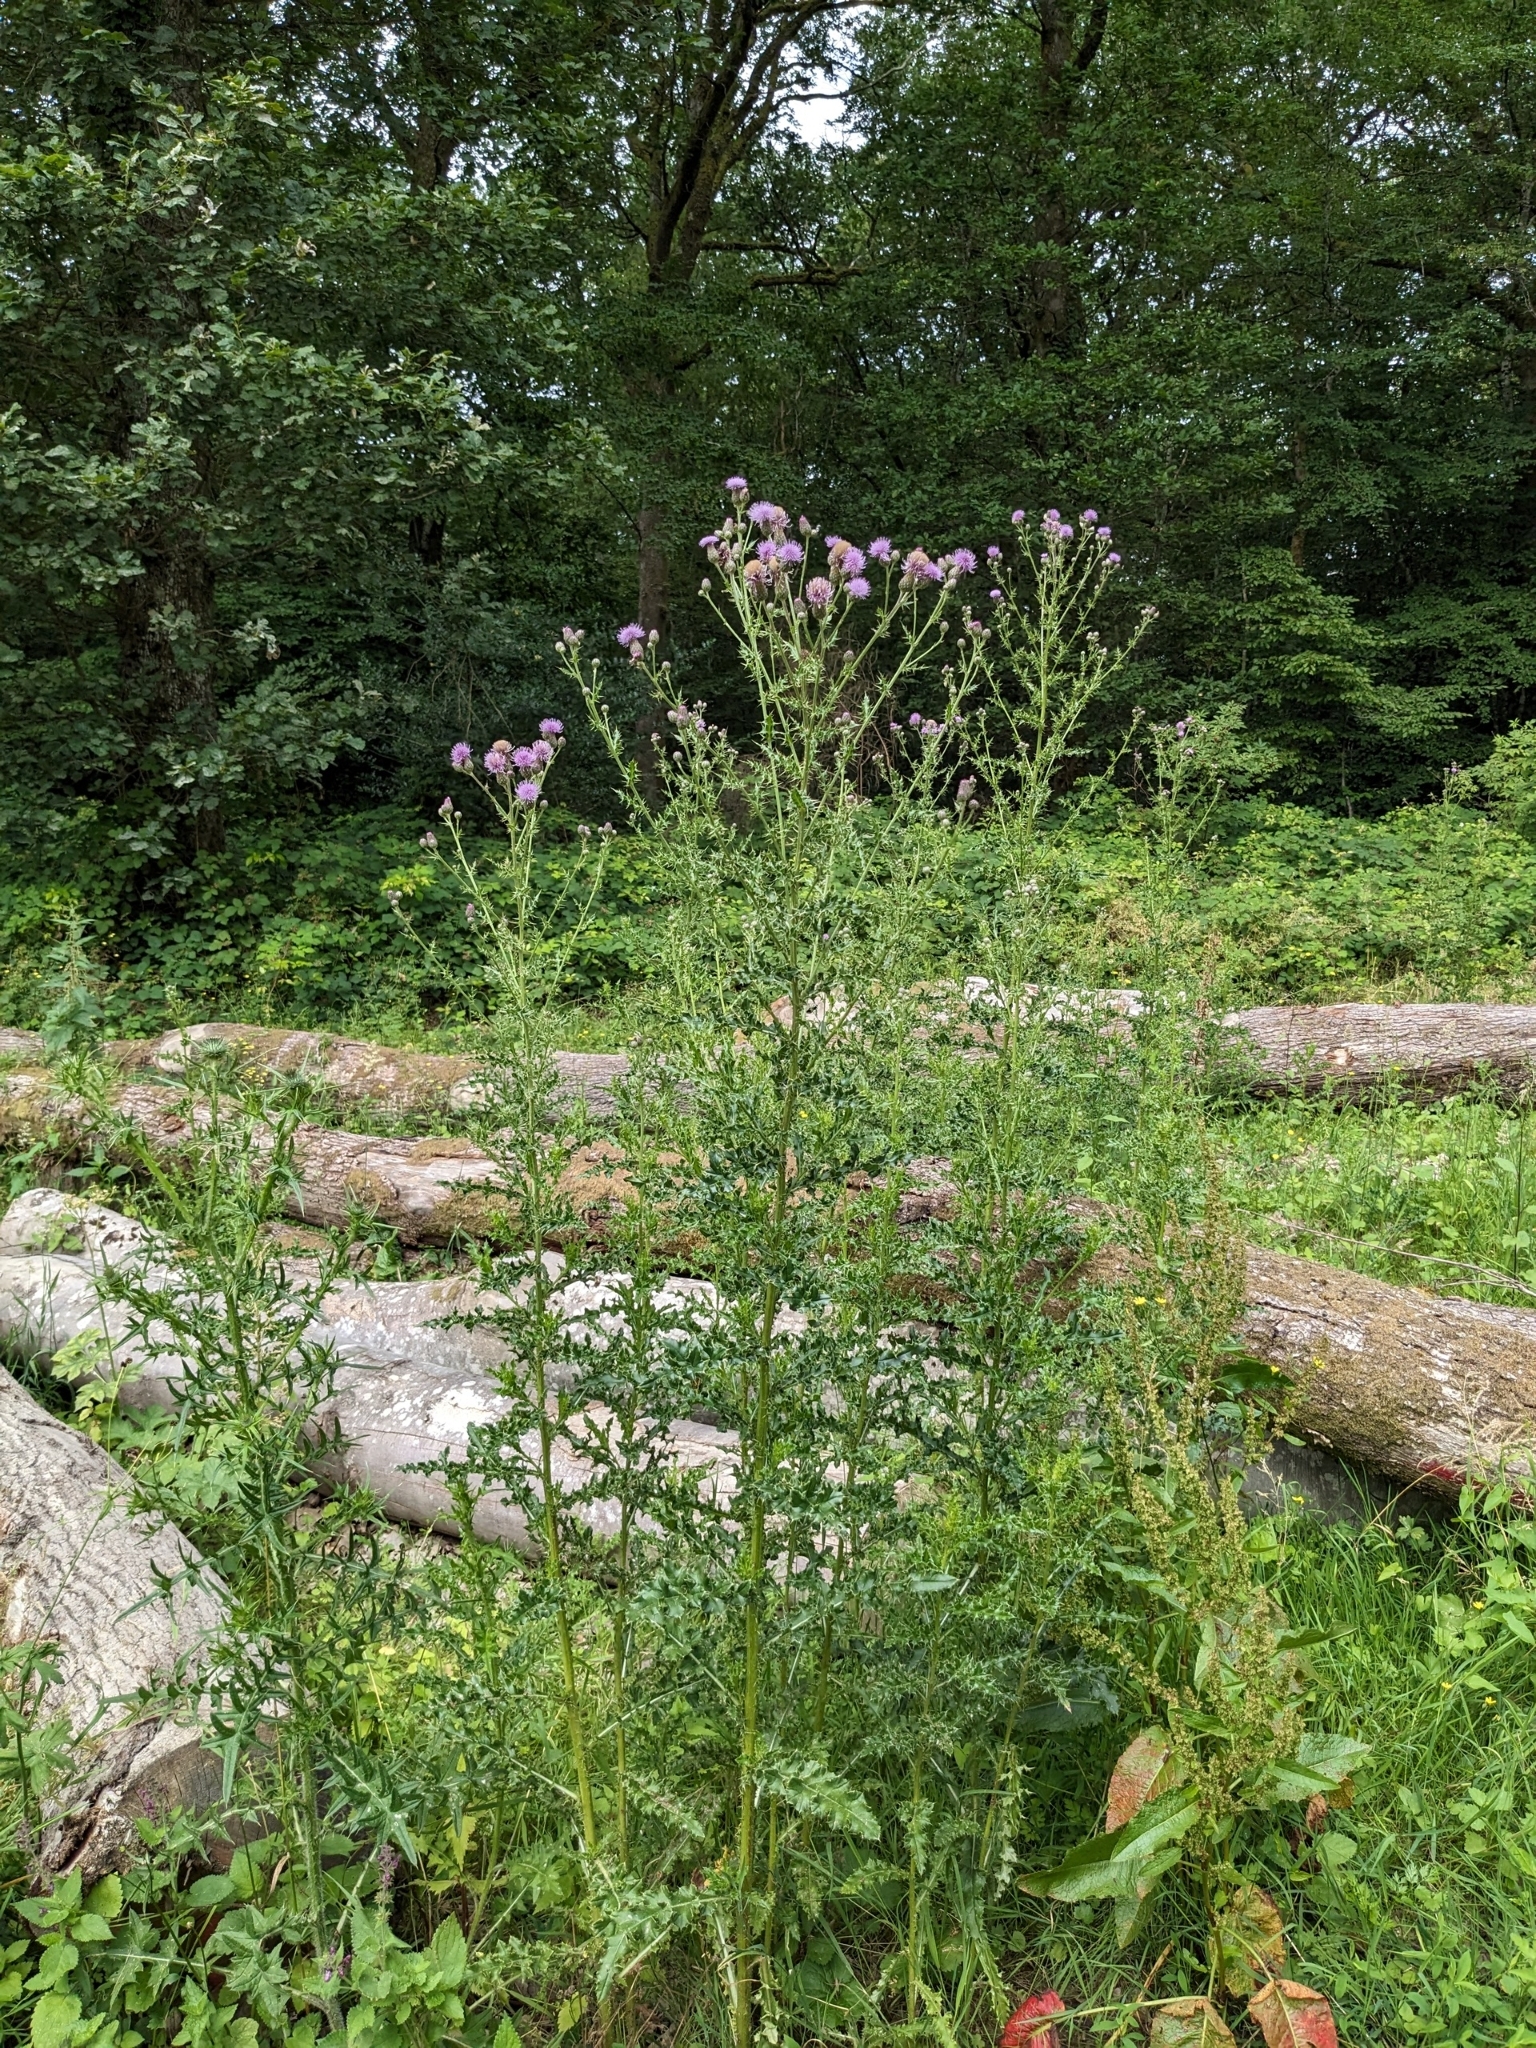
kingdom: Plantae
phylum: Tracheophyta
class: Magnoliopsida
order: Asterales
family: Asteraceae
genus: Cirsium
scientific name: Cirsium arvense
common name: Creeping thistle
